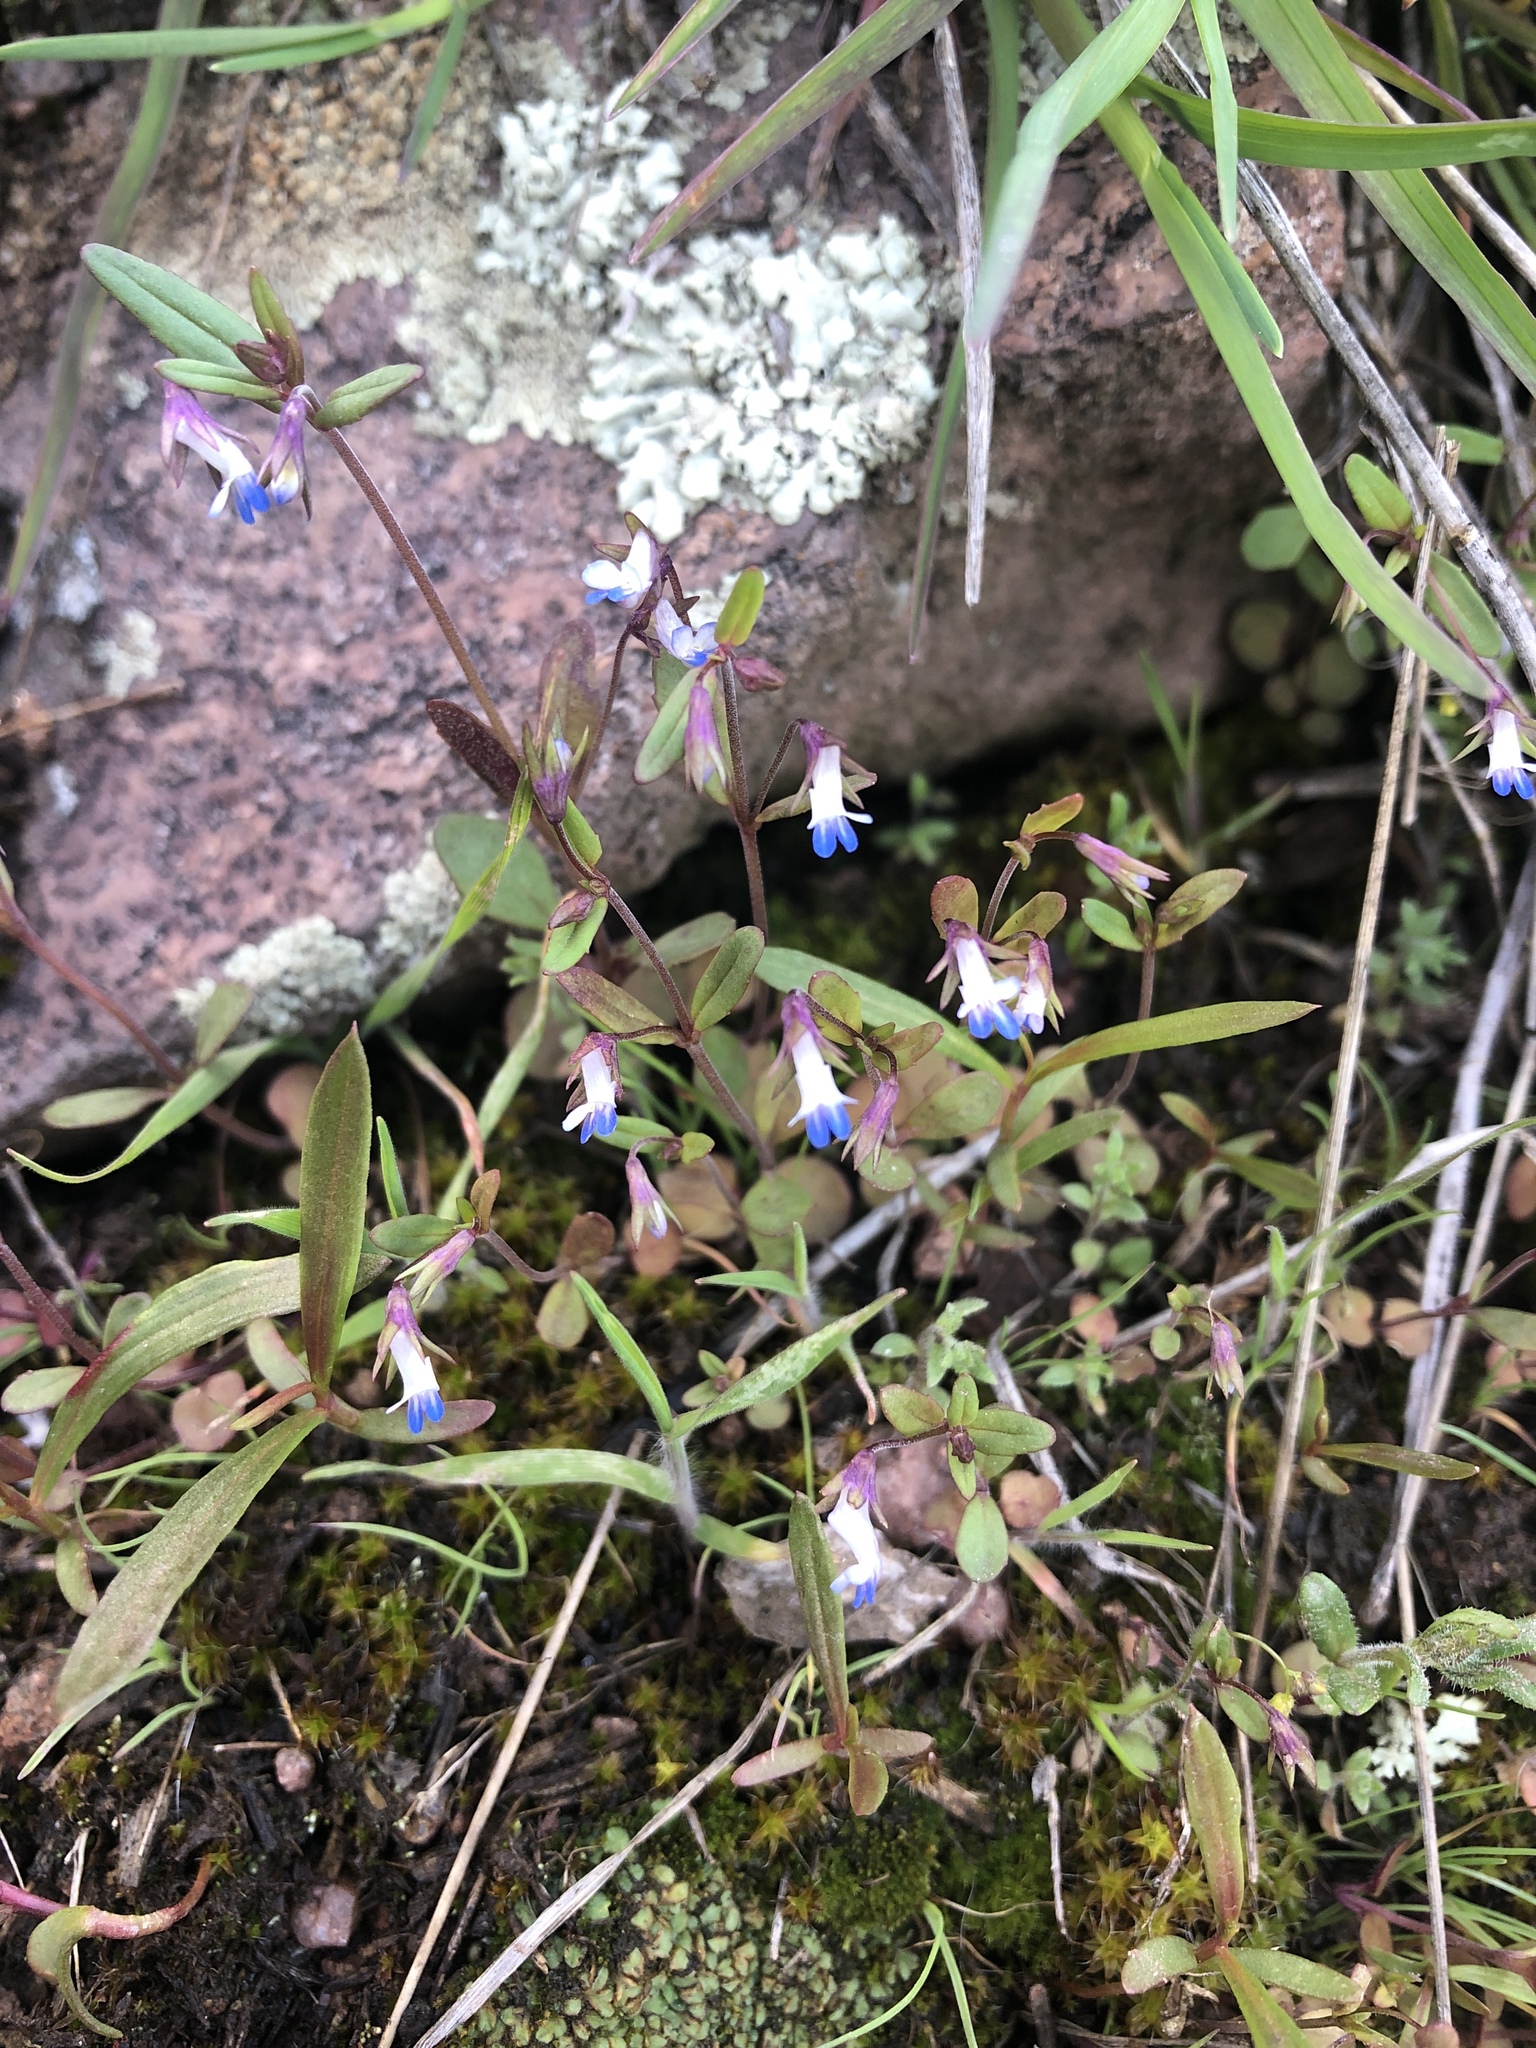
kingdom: Plantae
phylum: Tracheophyta
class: Magnoliopsida
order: Lamiales
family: Plantaginaceae
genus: Collinsia
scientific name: Collinsia parviflora
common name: Blue-lips
